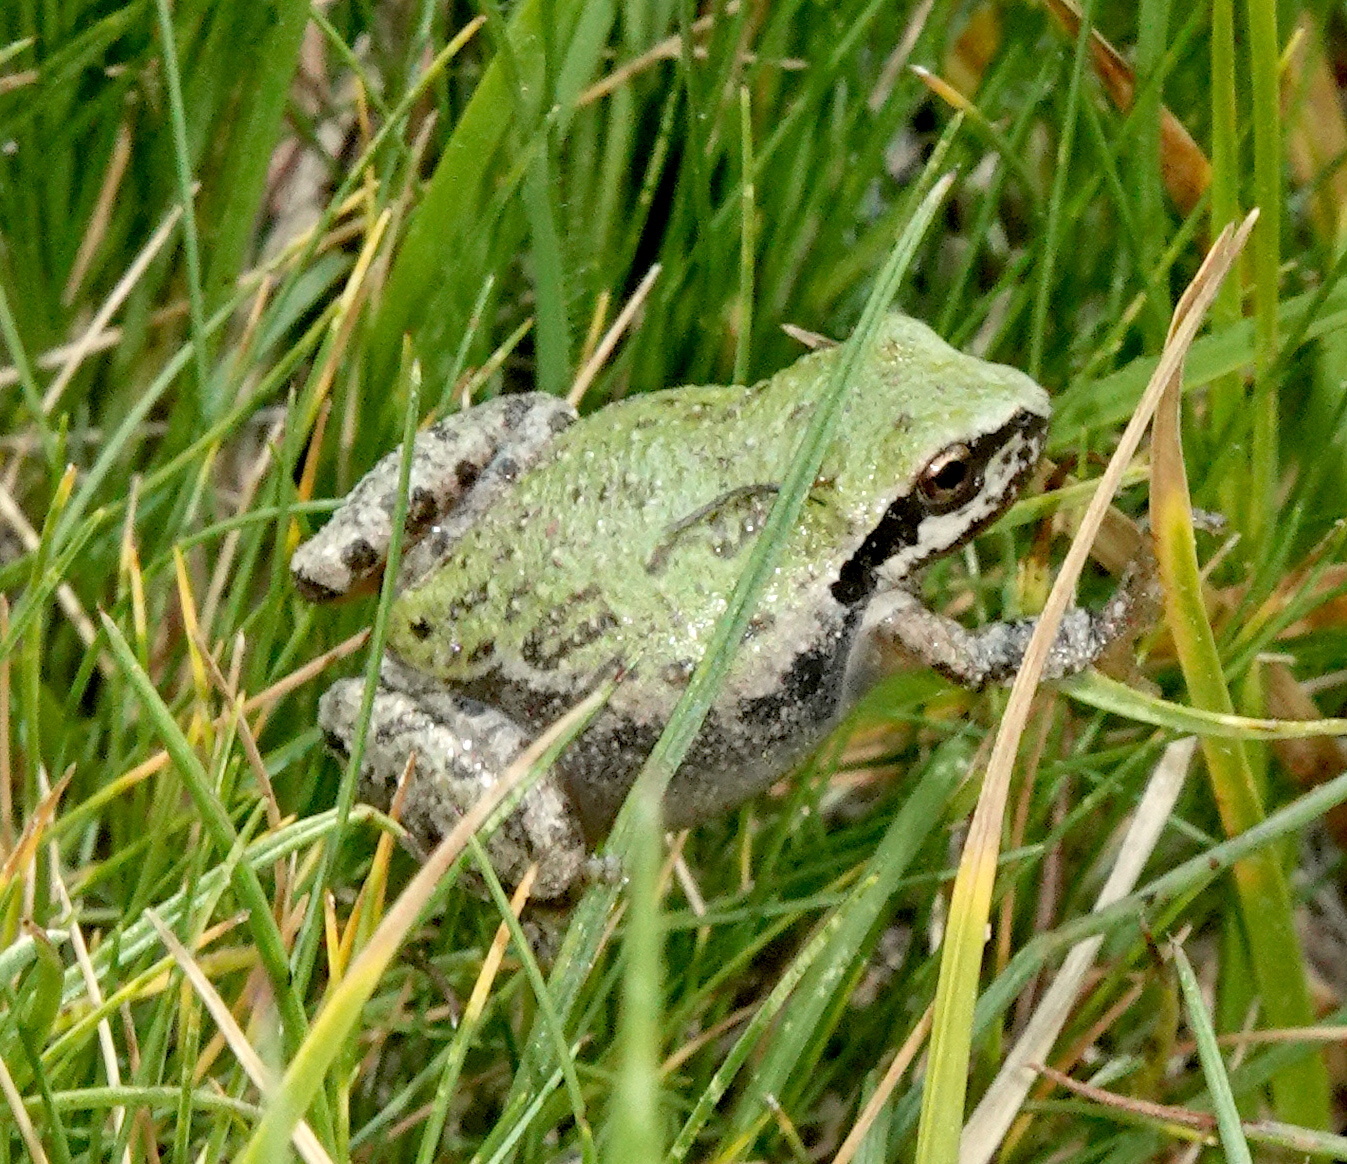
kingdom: Animalia
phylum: Chordata
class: Amphibia
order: Anura
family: Hylidae
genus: Pseudacris
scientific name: Pseudacris regilla
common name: Pacific chorus frog
